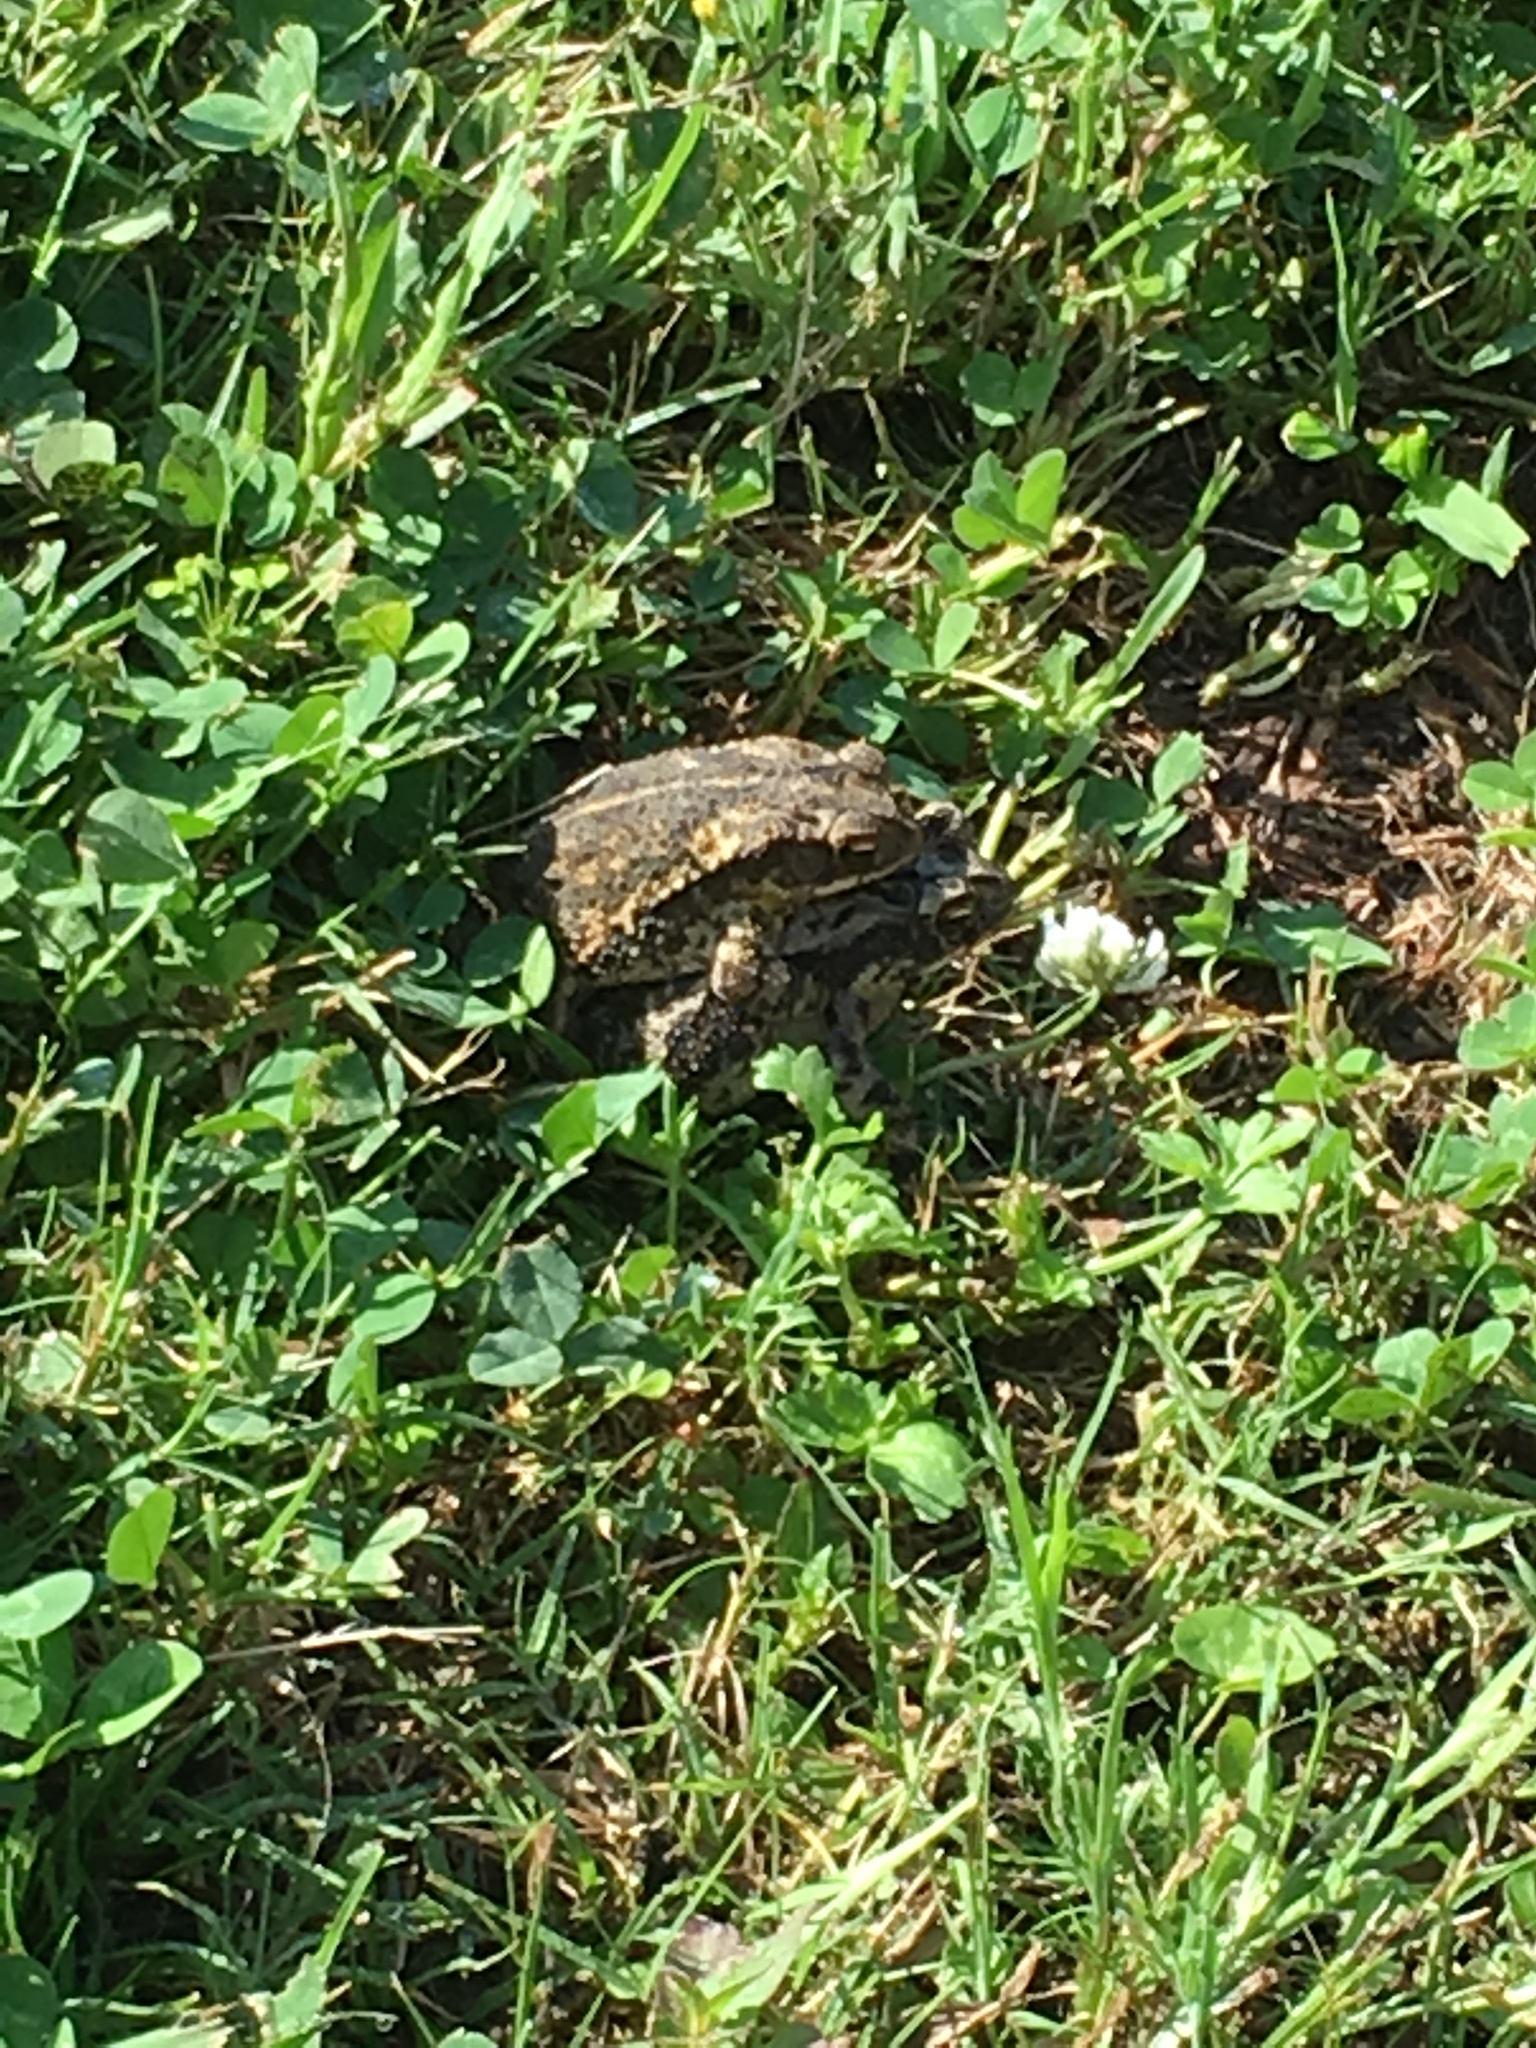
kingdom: Animalia
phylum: Chordata
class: Amphibia
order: Anura
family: Bufonidae
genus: Incilius
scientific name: Incilius nebulifer
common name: Gulf coast toad
